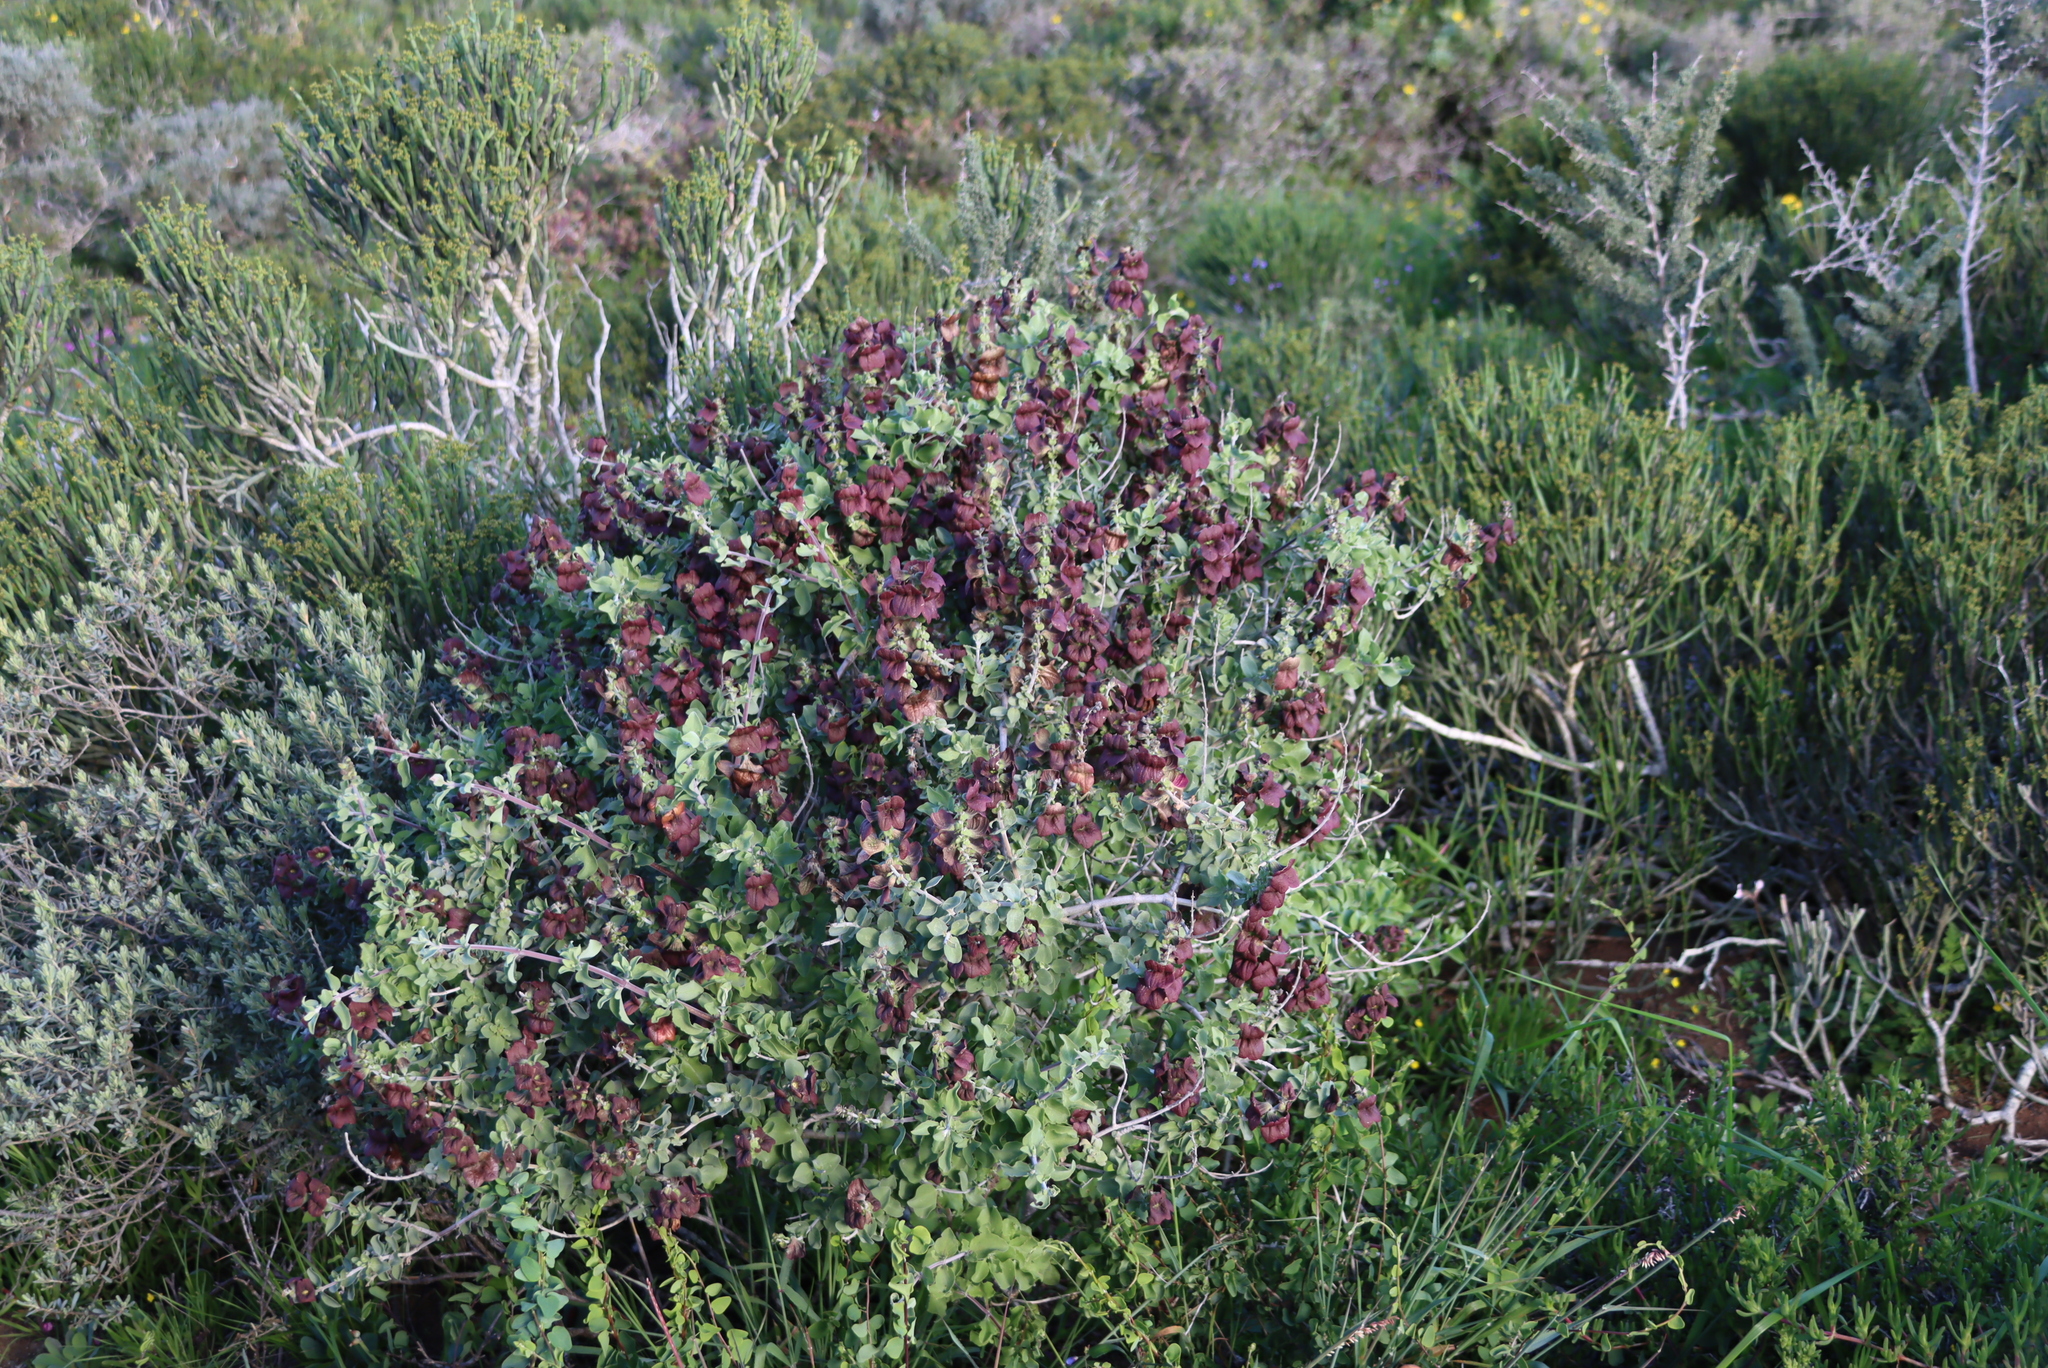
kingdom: Plantae
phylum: Tracheophyta
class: Magnoliopsida
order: Lamiales
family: Lamiaceae
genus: Salvia
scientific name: Salvia aurea
